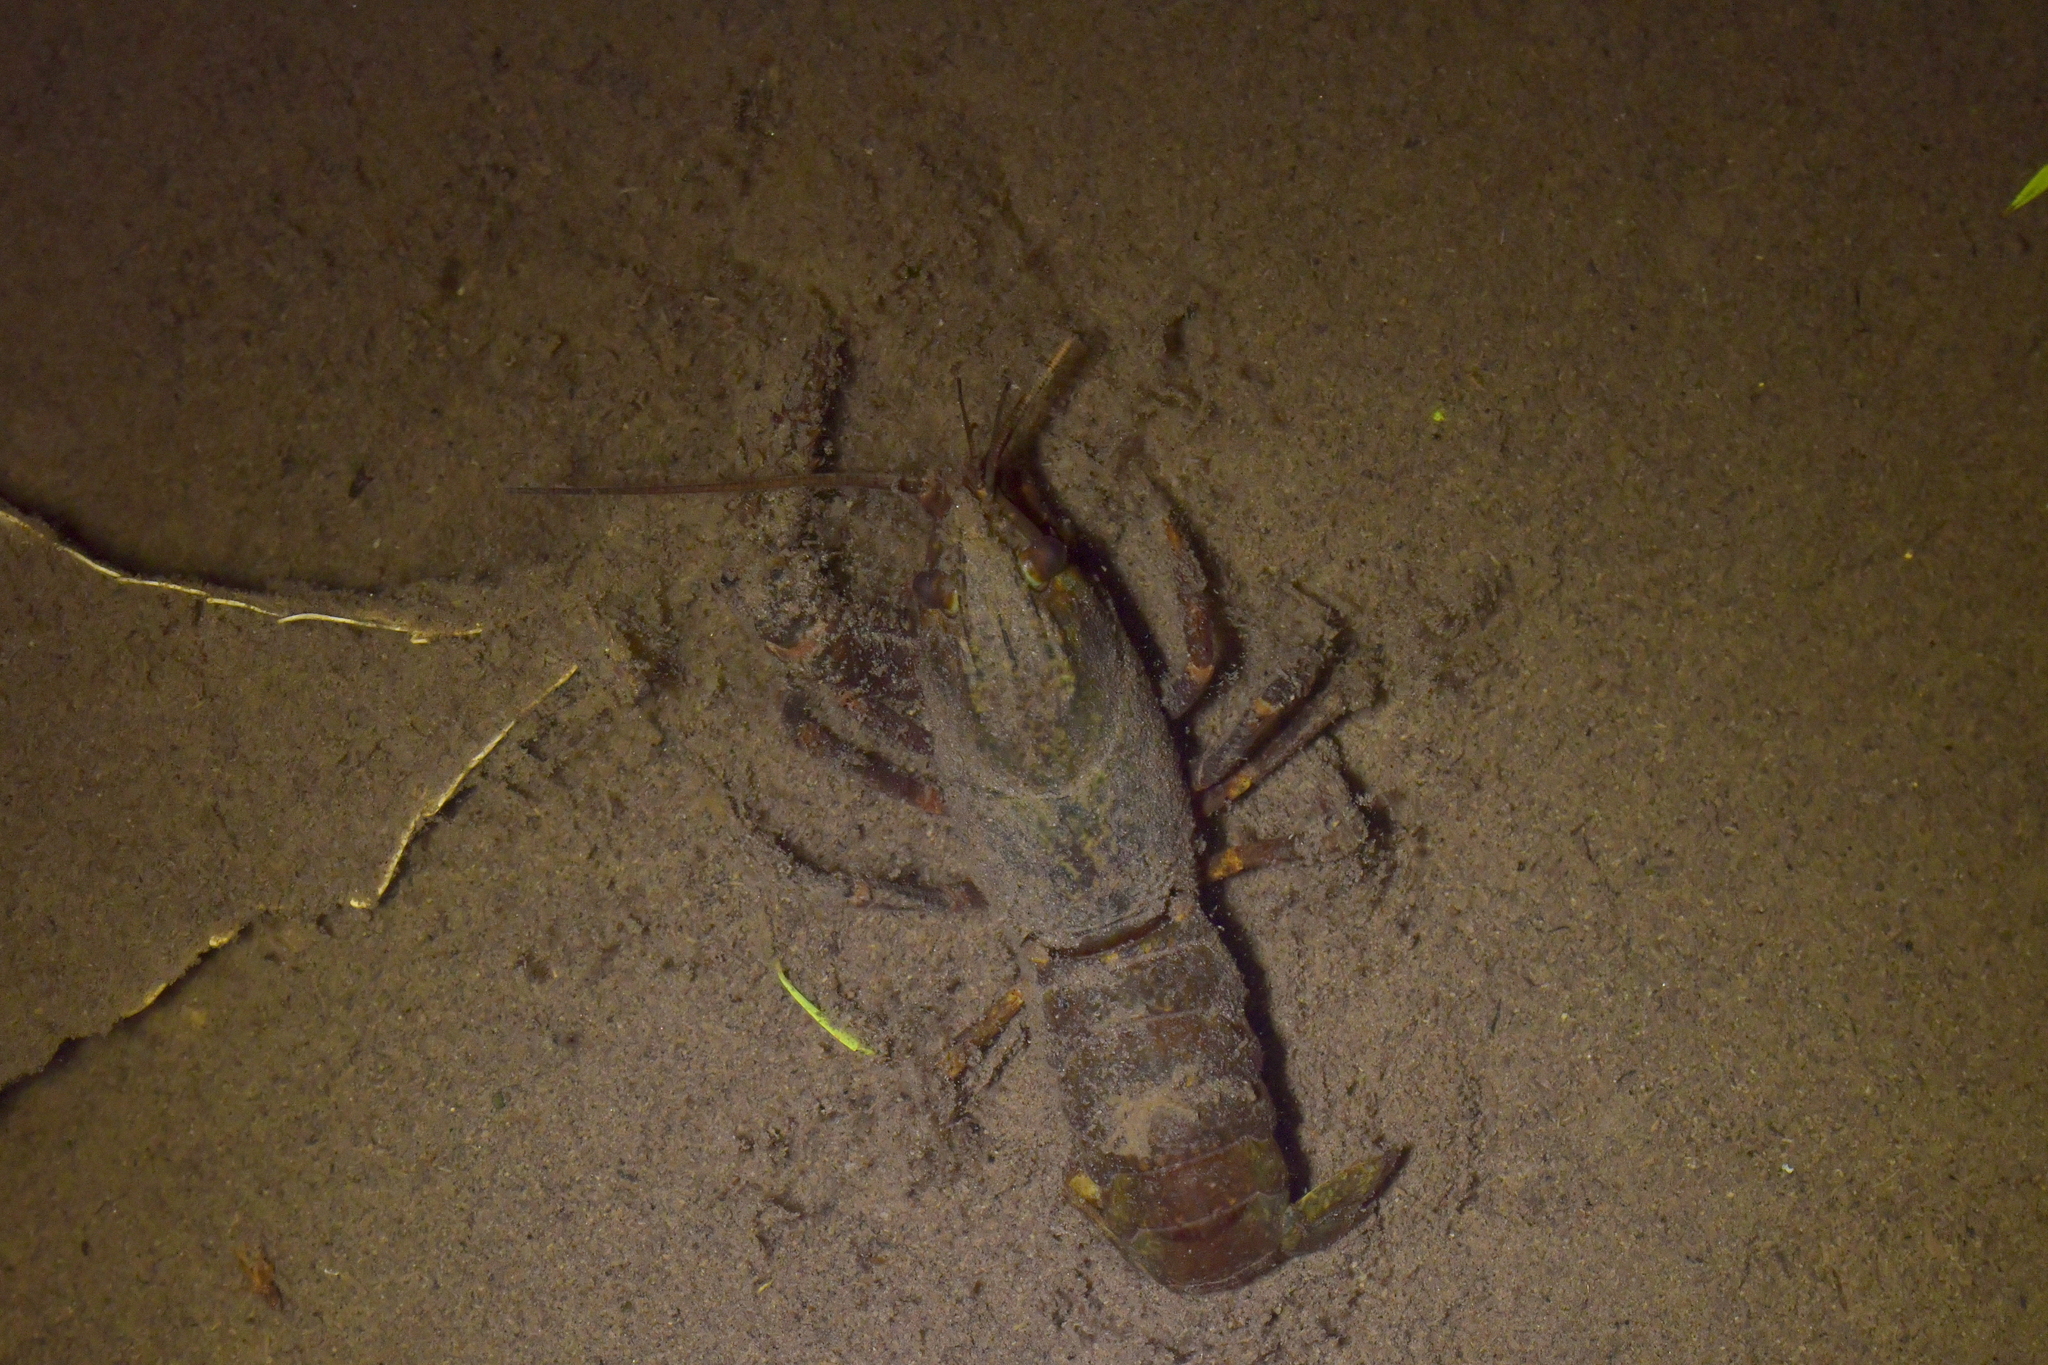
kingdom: Animalia
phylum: Arthropoda
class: Malacostraca
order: Decapoda
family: Parastacidae
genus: Paranephrops
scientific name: Paranephrops planifrons
